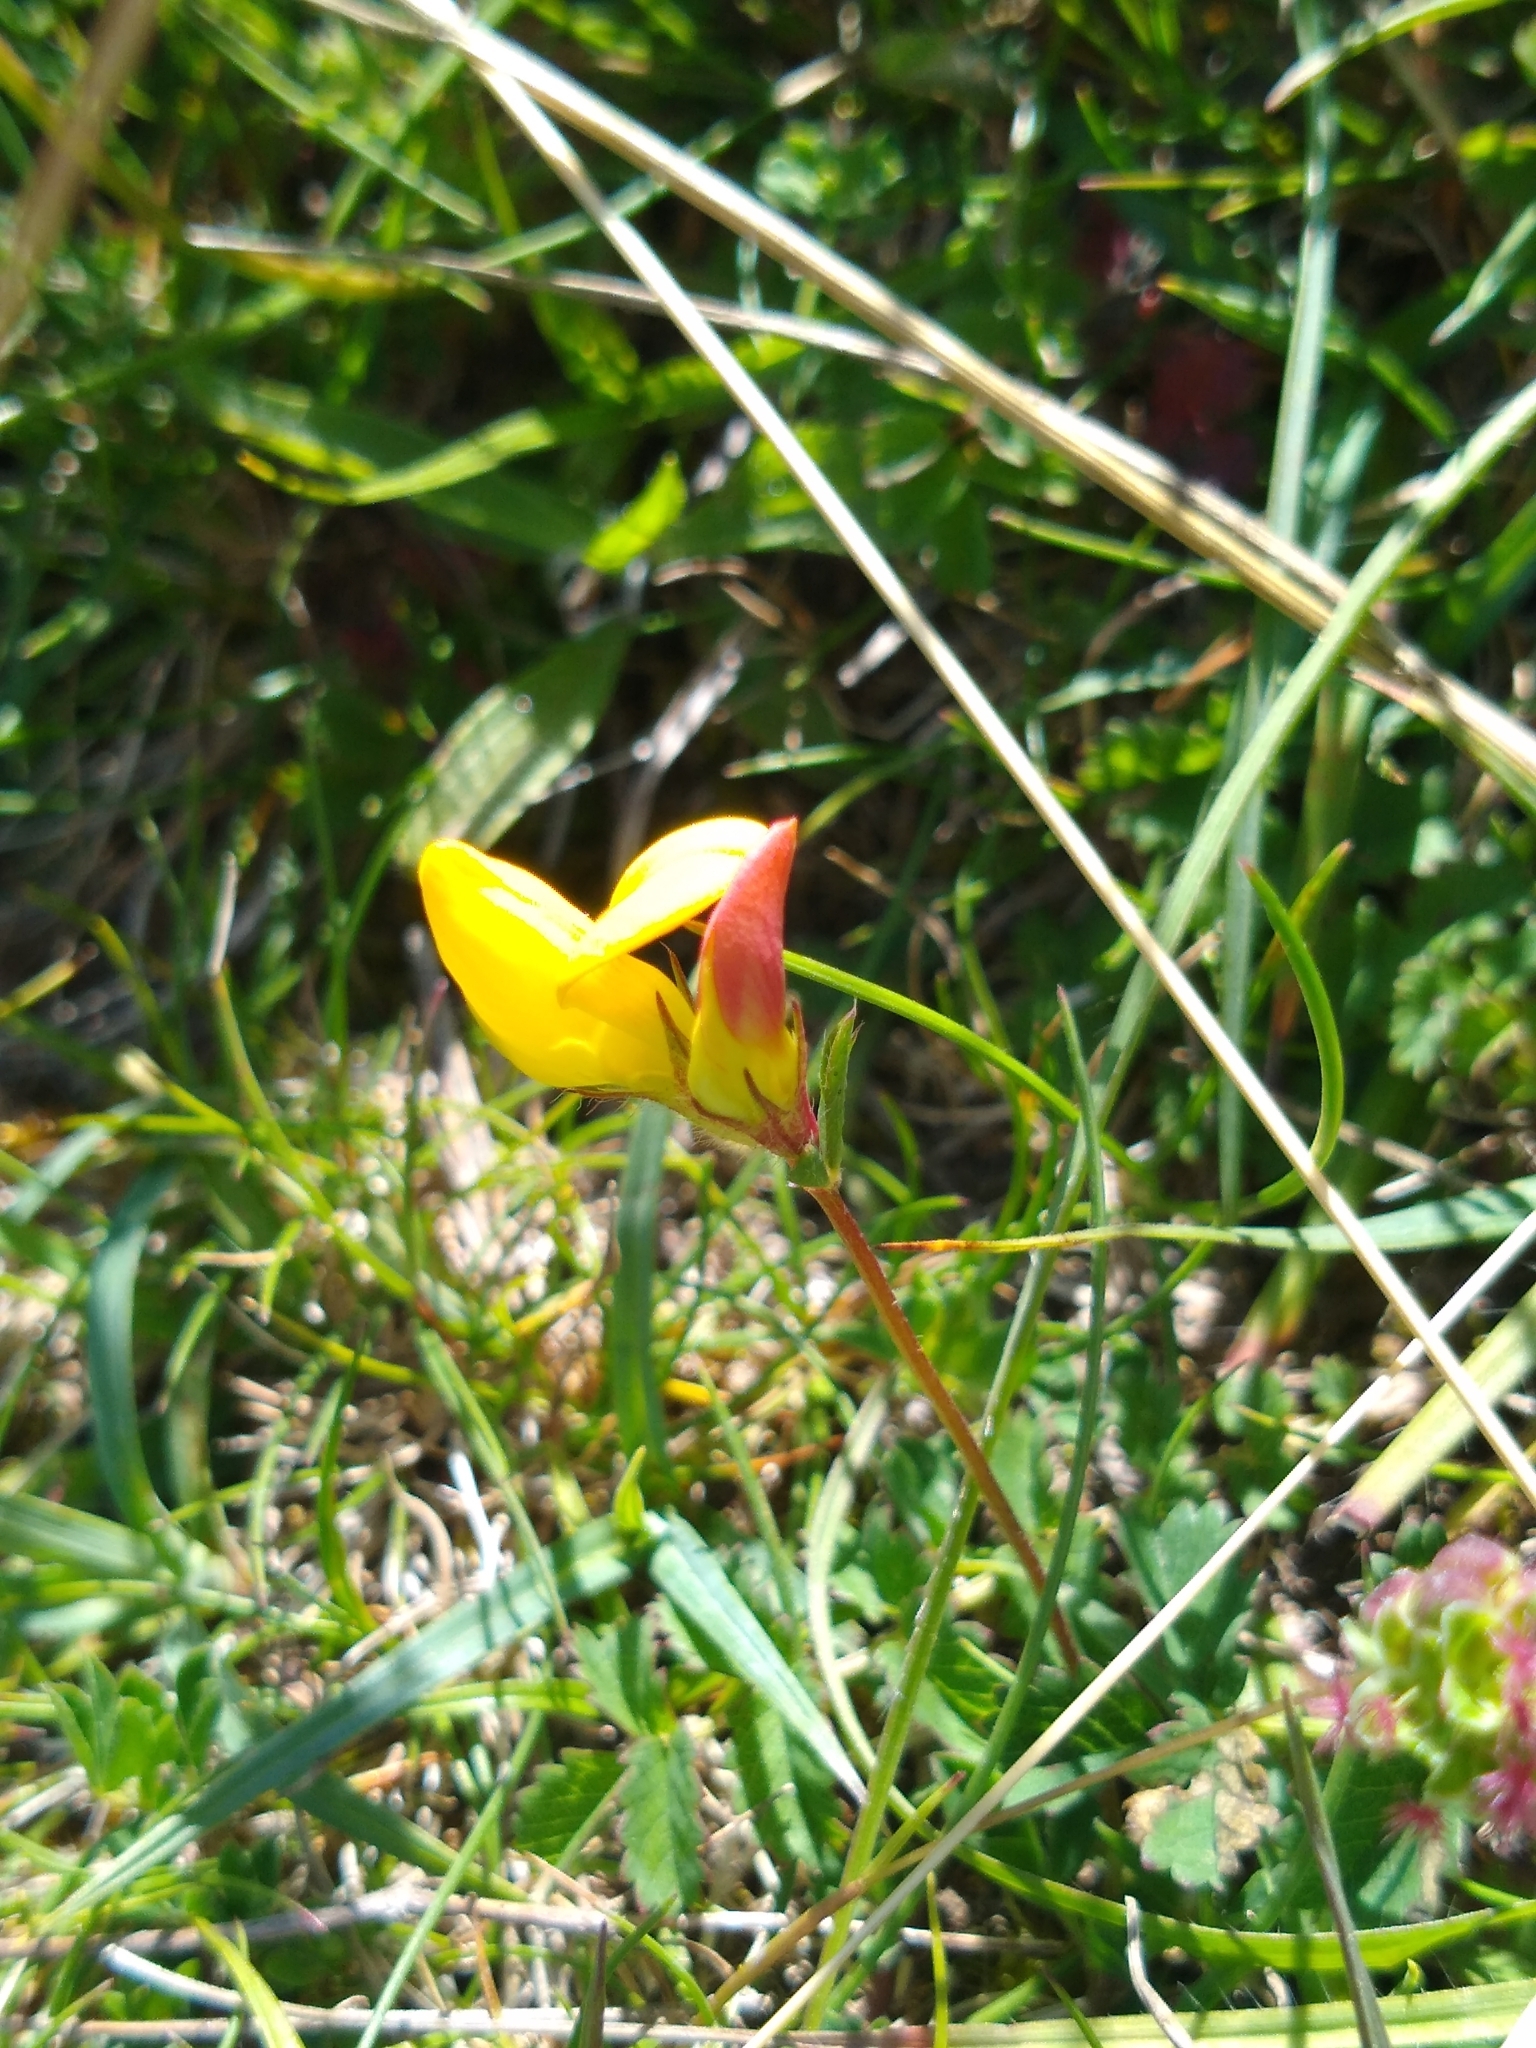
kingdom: Plantae
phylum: Tracheophyta
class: Magnoliopsida
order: Fabales
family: Fabaceae
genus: Lotus
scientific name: Lotus corniculatus
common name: Common bird's-foot-trefoil
